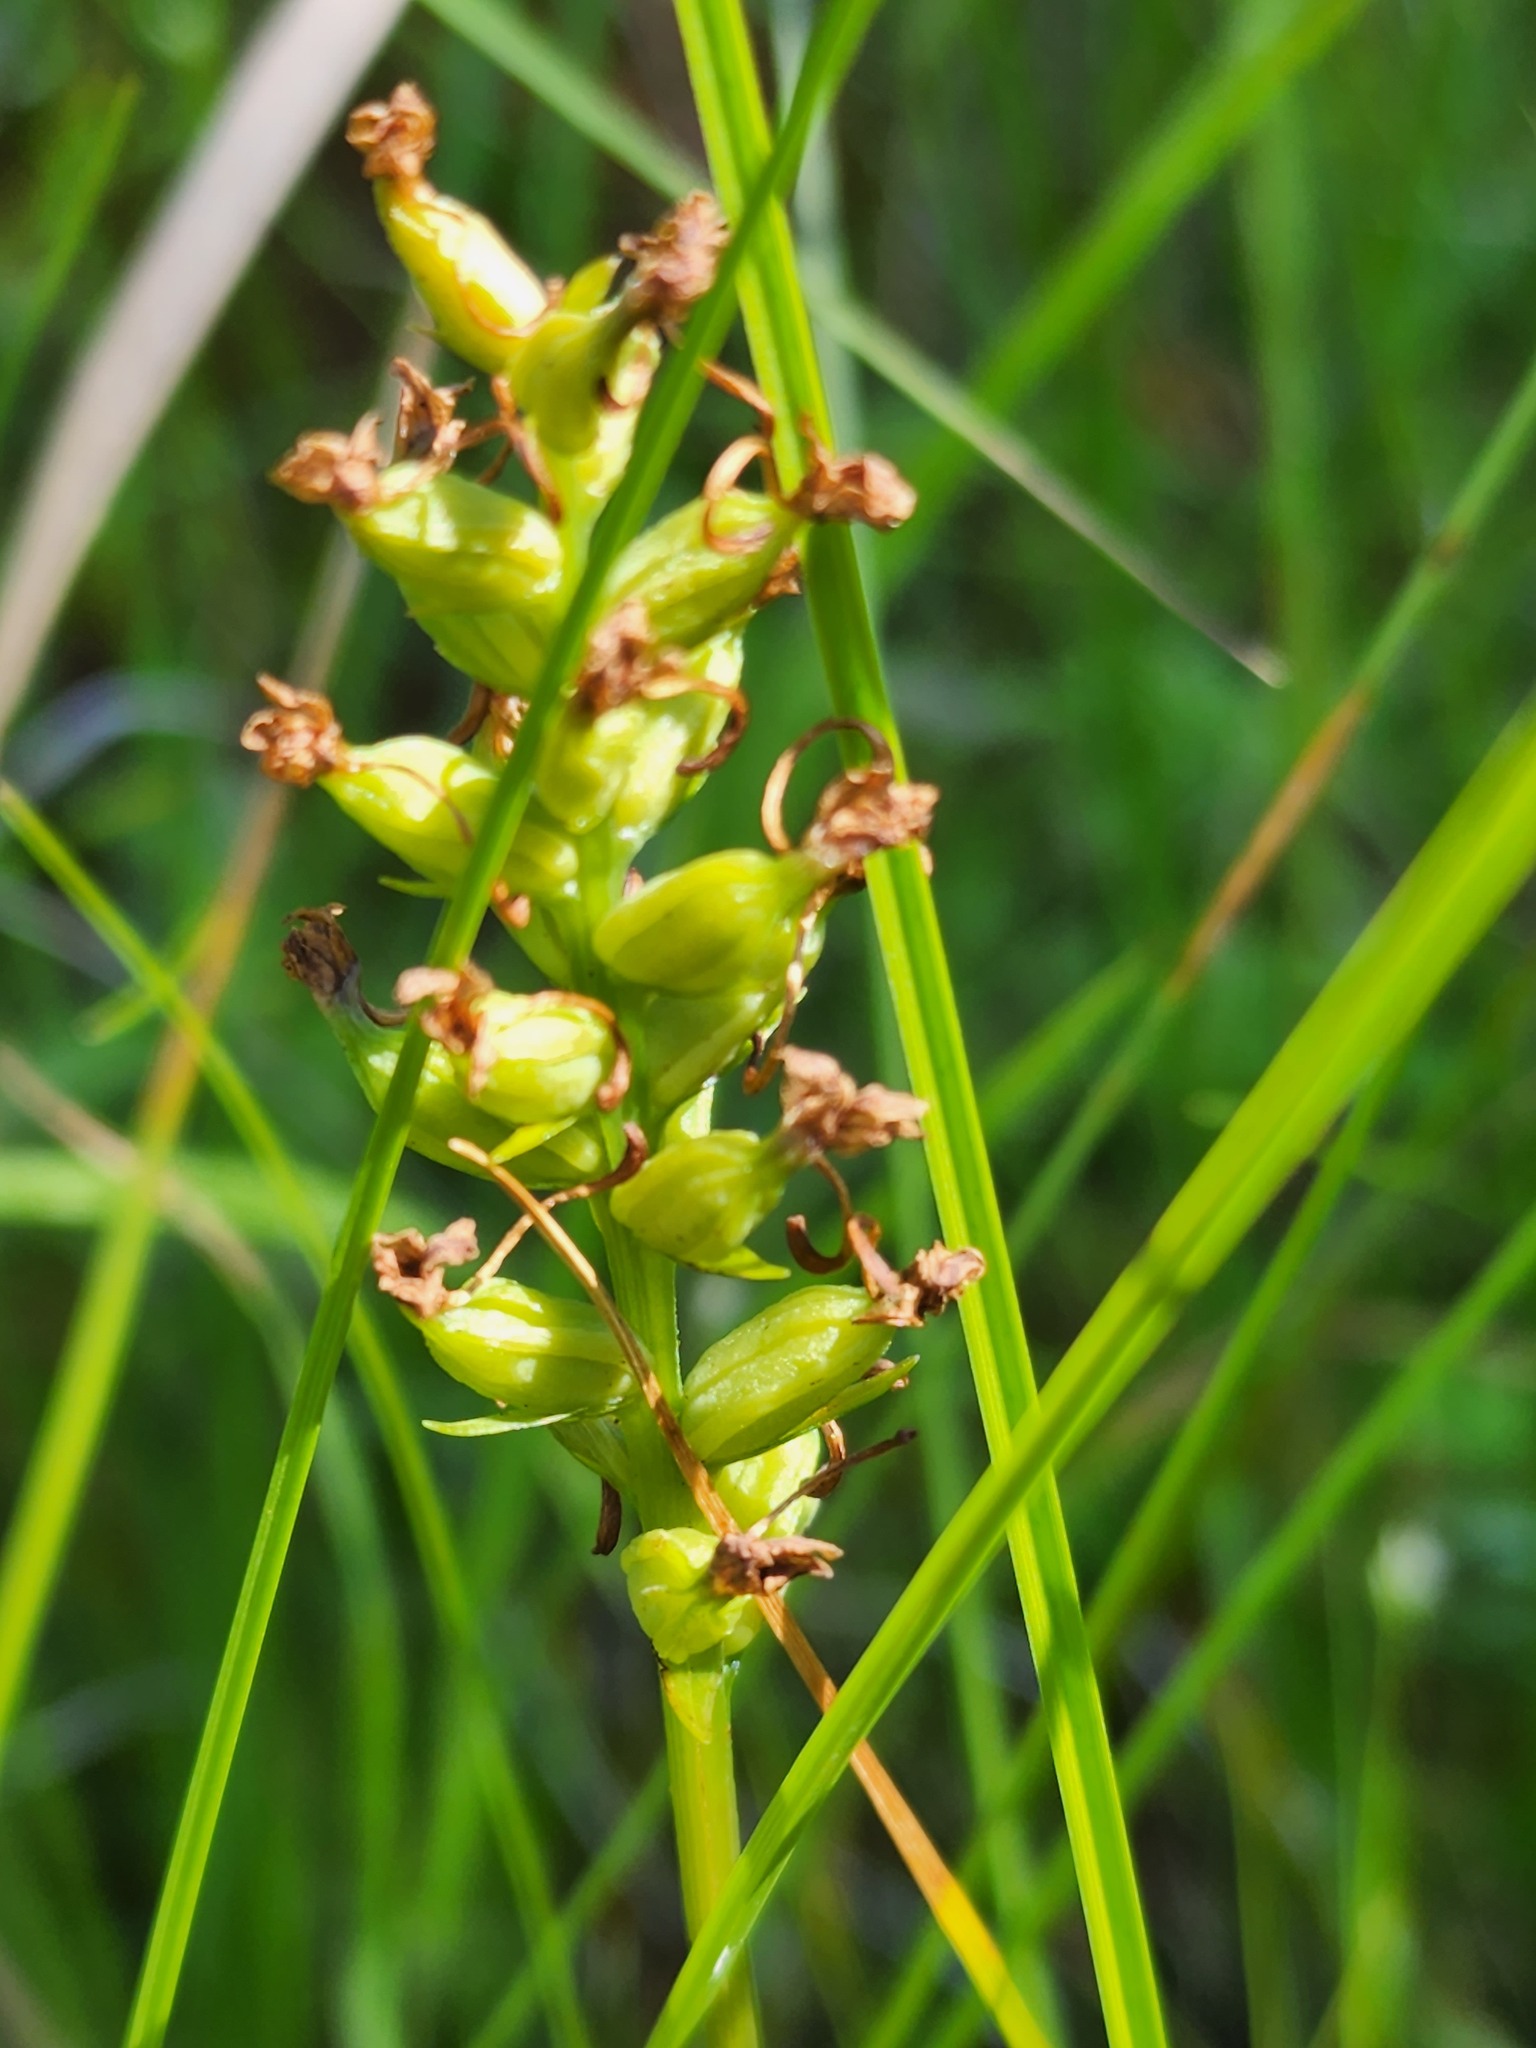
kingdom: Plantae
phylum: Tracheophyta
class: Liliopsida
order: Asparagales
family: Orchidaceae
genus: Platanthera
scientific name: Platanthera clavellata
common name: Club-spur orchid
